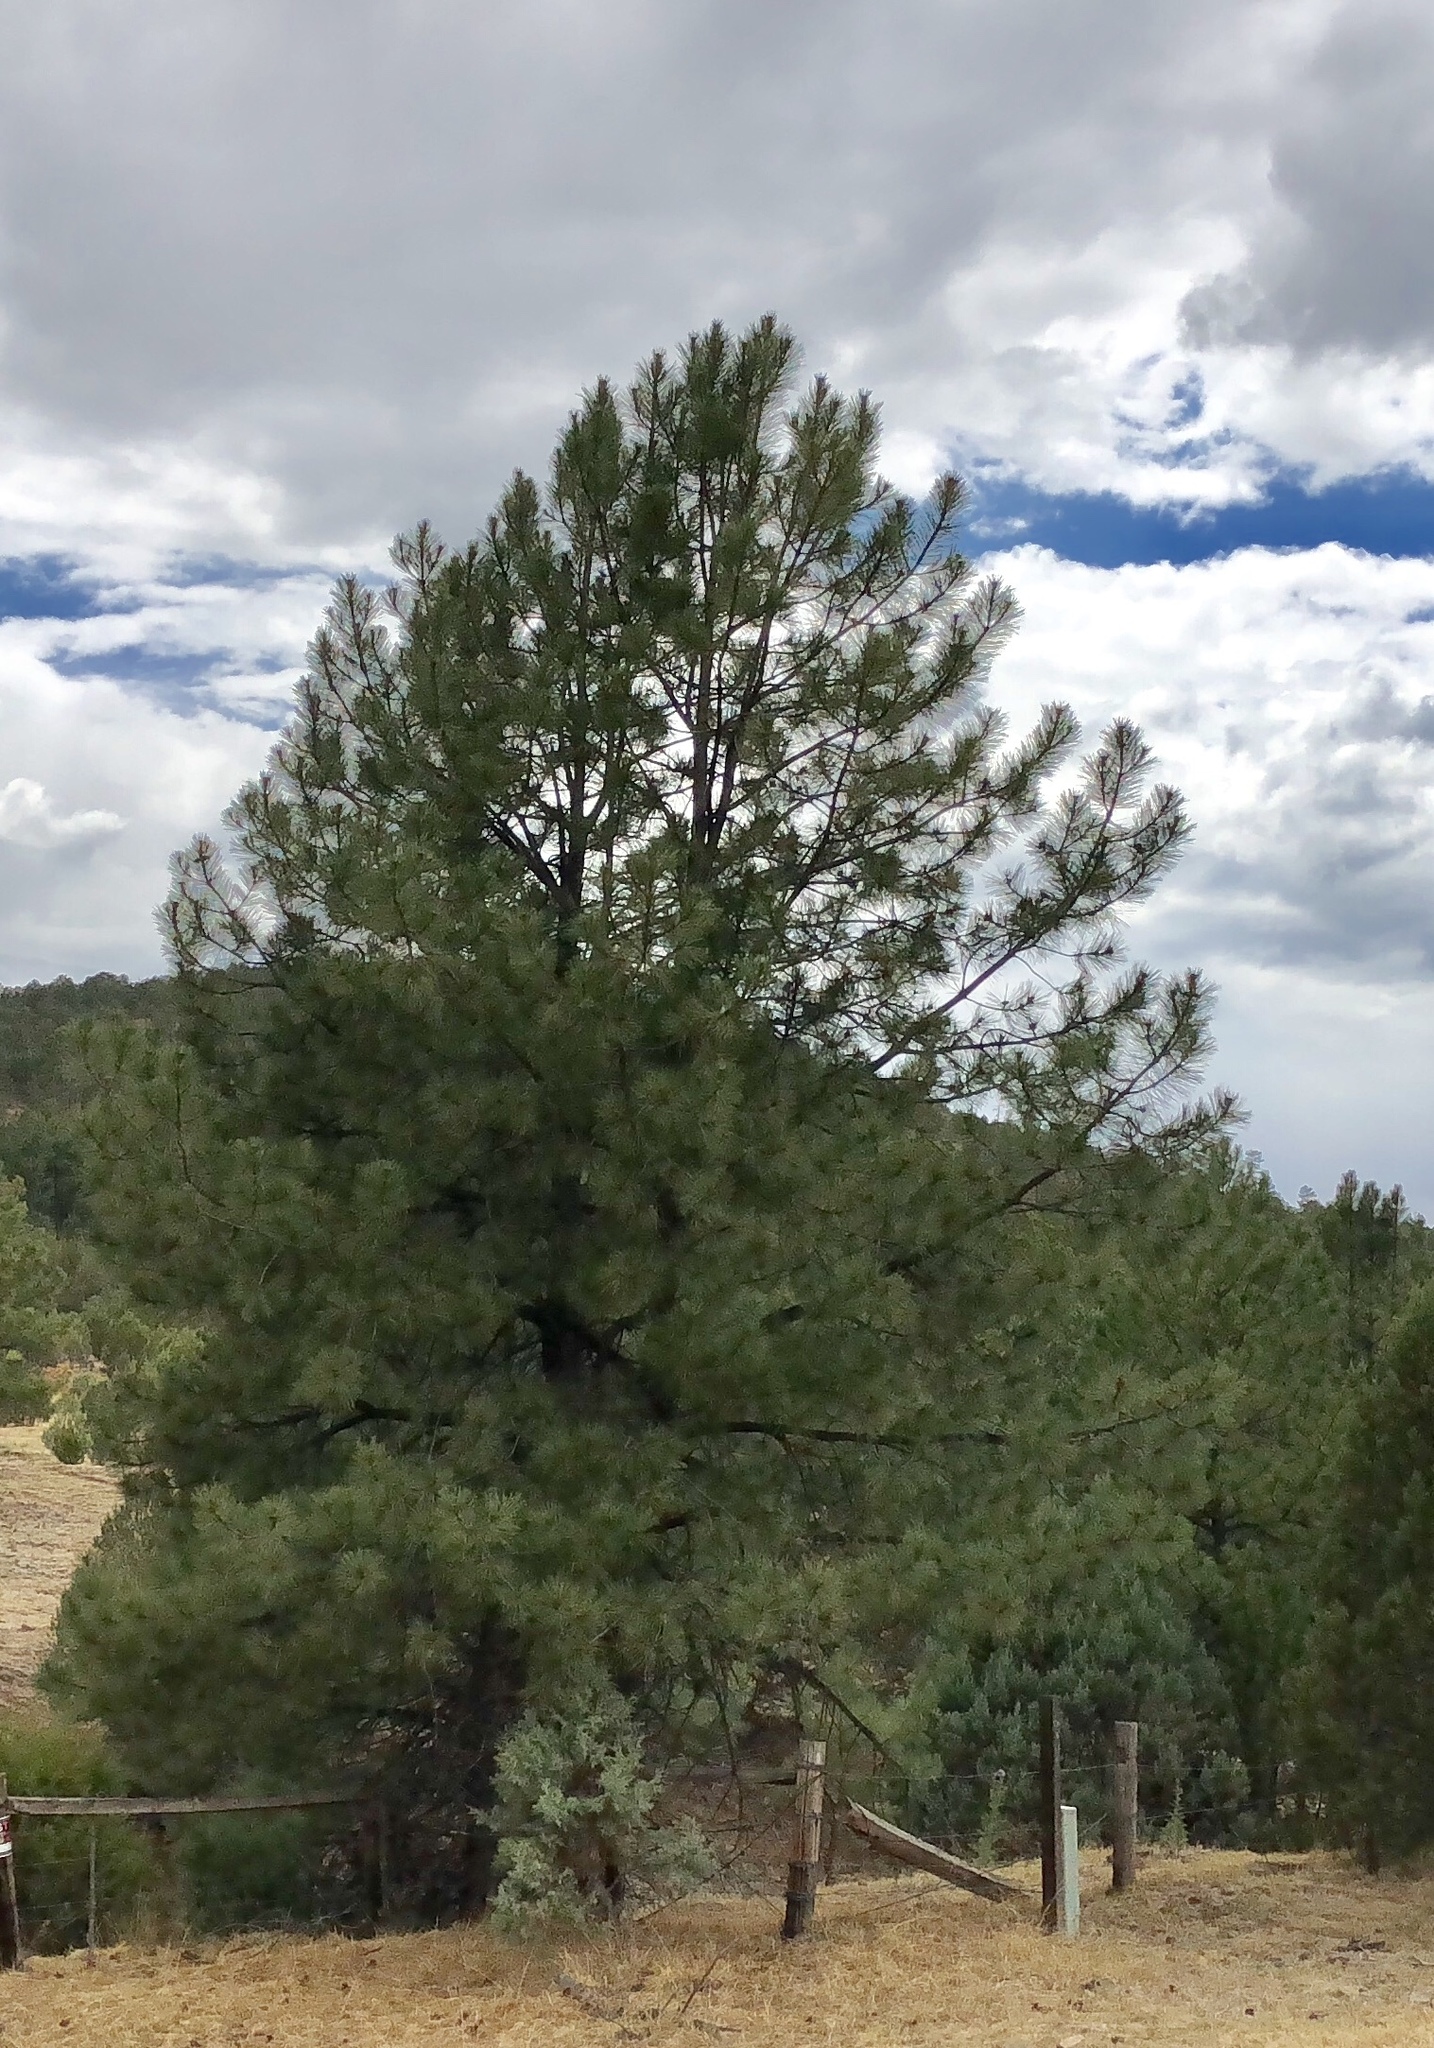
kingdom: Plantae
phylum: Tracheophyta
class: Pinopsida
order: Pinales
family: Pinaceae
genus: Pinus
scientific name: Pinus ponderosa
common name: Western yellow-pine
